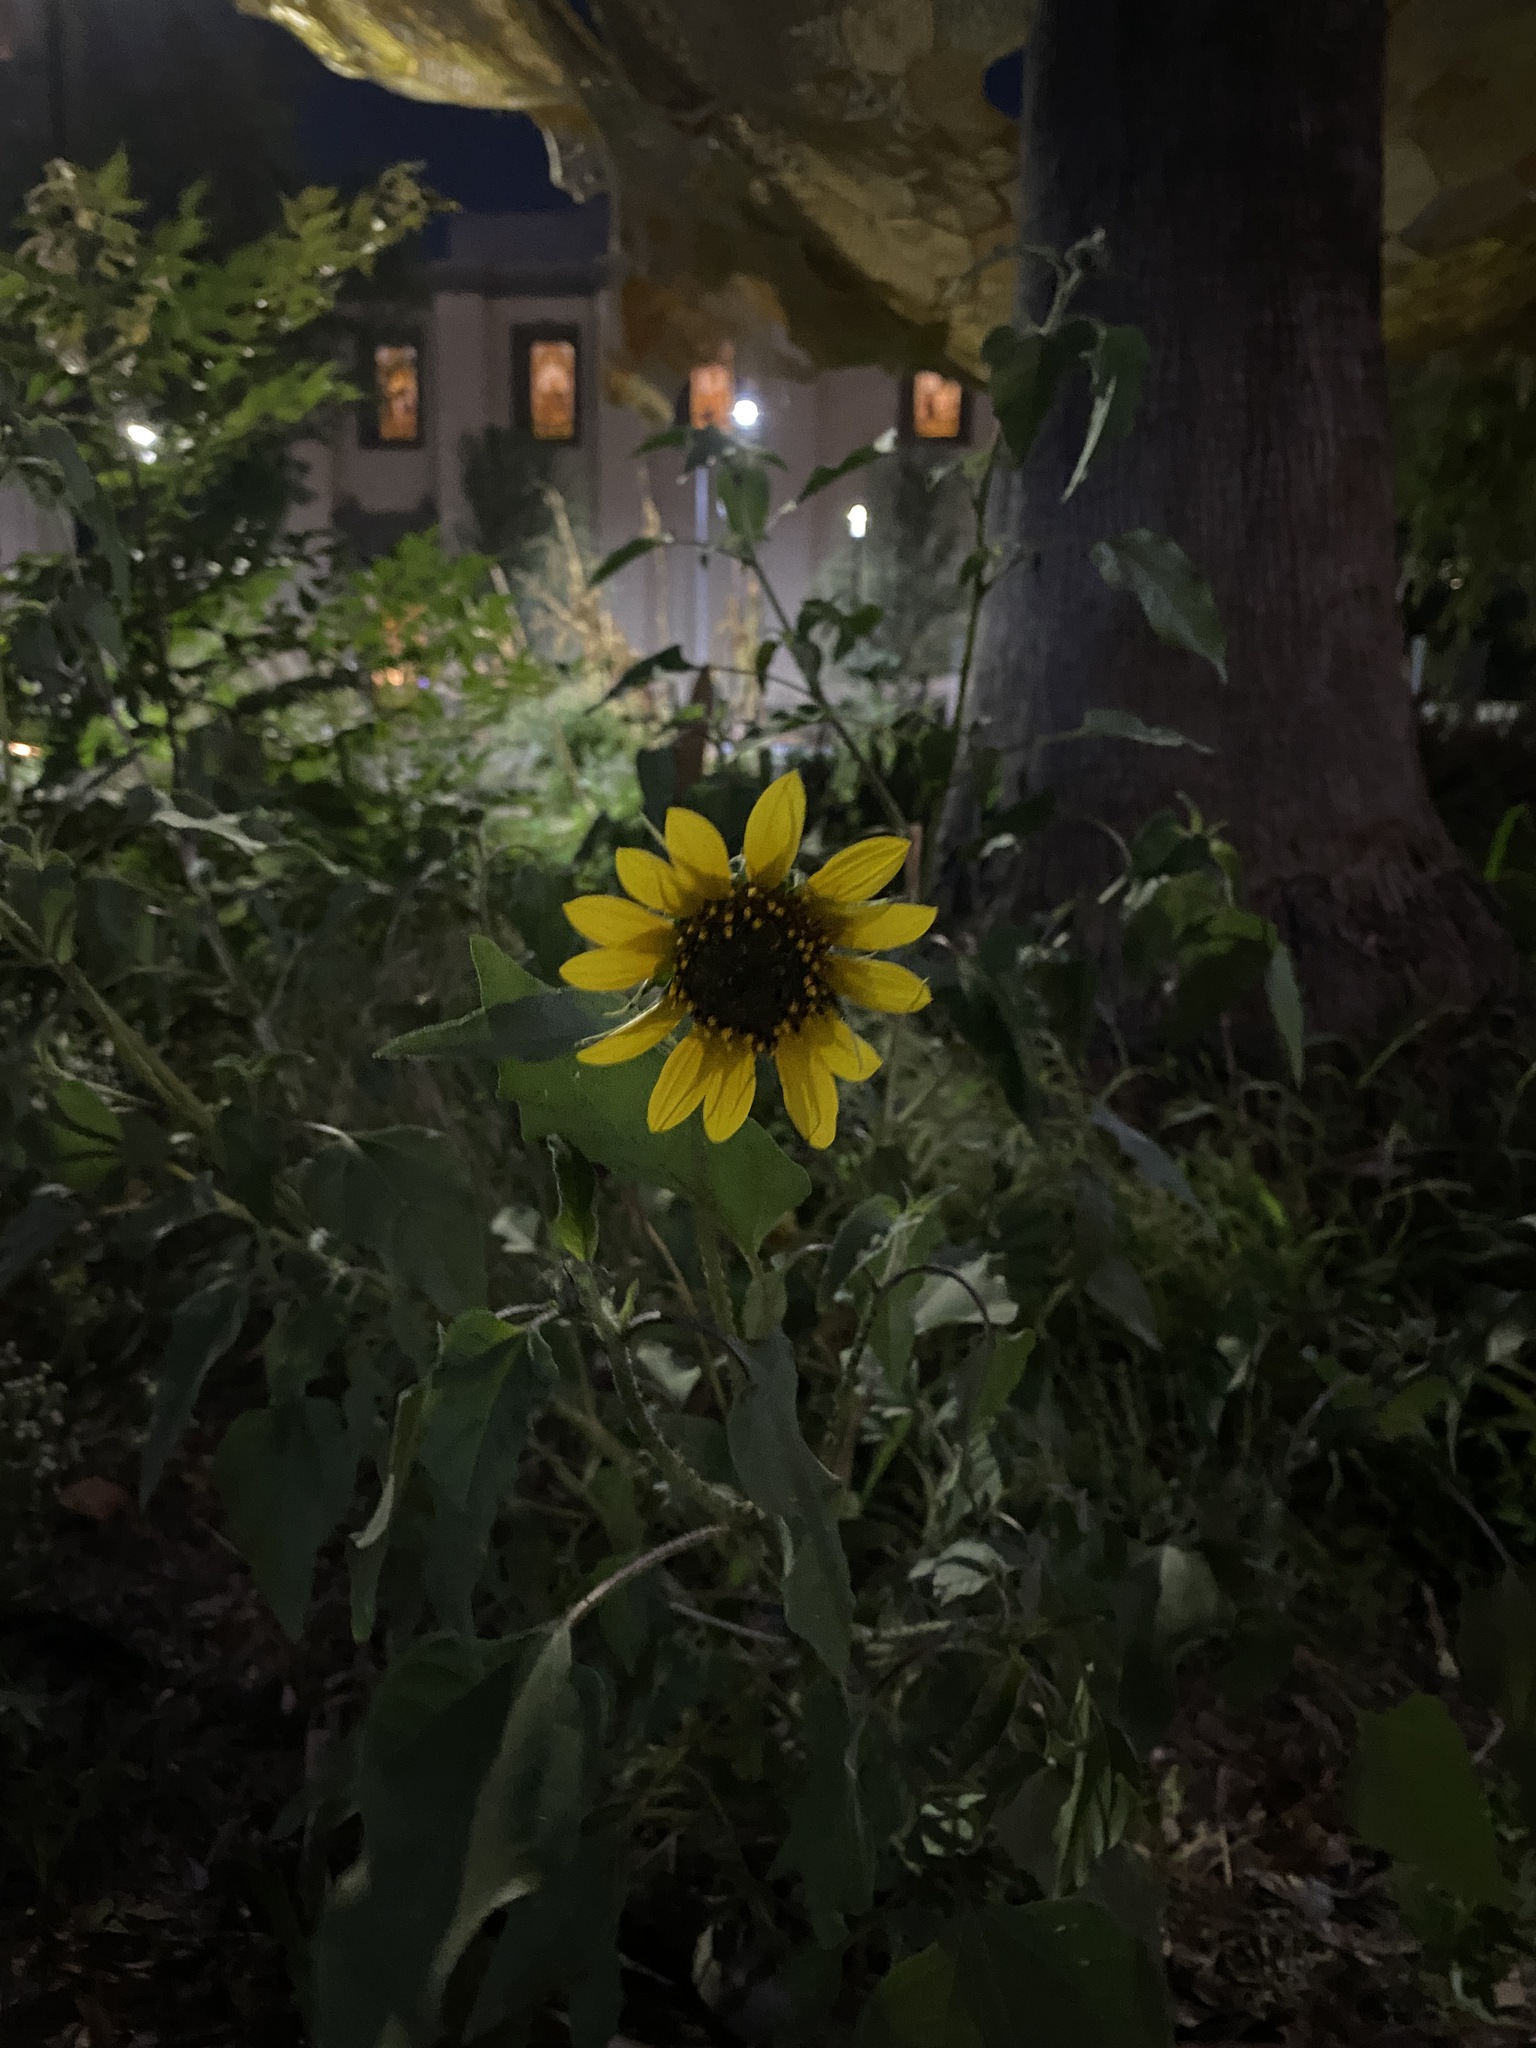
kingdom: Plantae
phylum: Tracheophyta
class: Magnoliopsida
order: Asterales
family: Asteraceae
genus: Helianthus
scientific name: Helianthus annuus
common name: Sunflower
